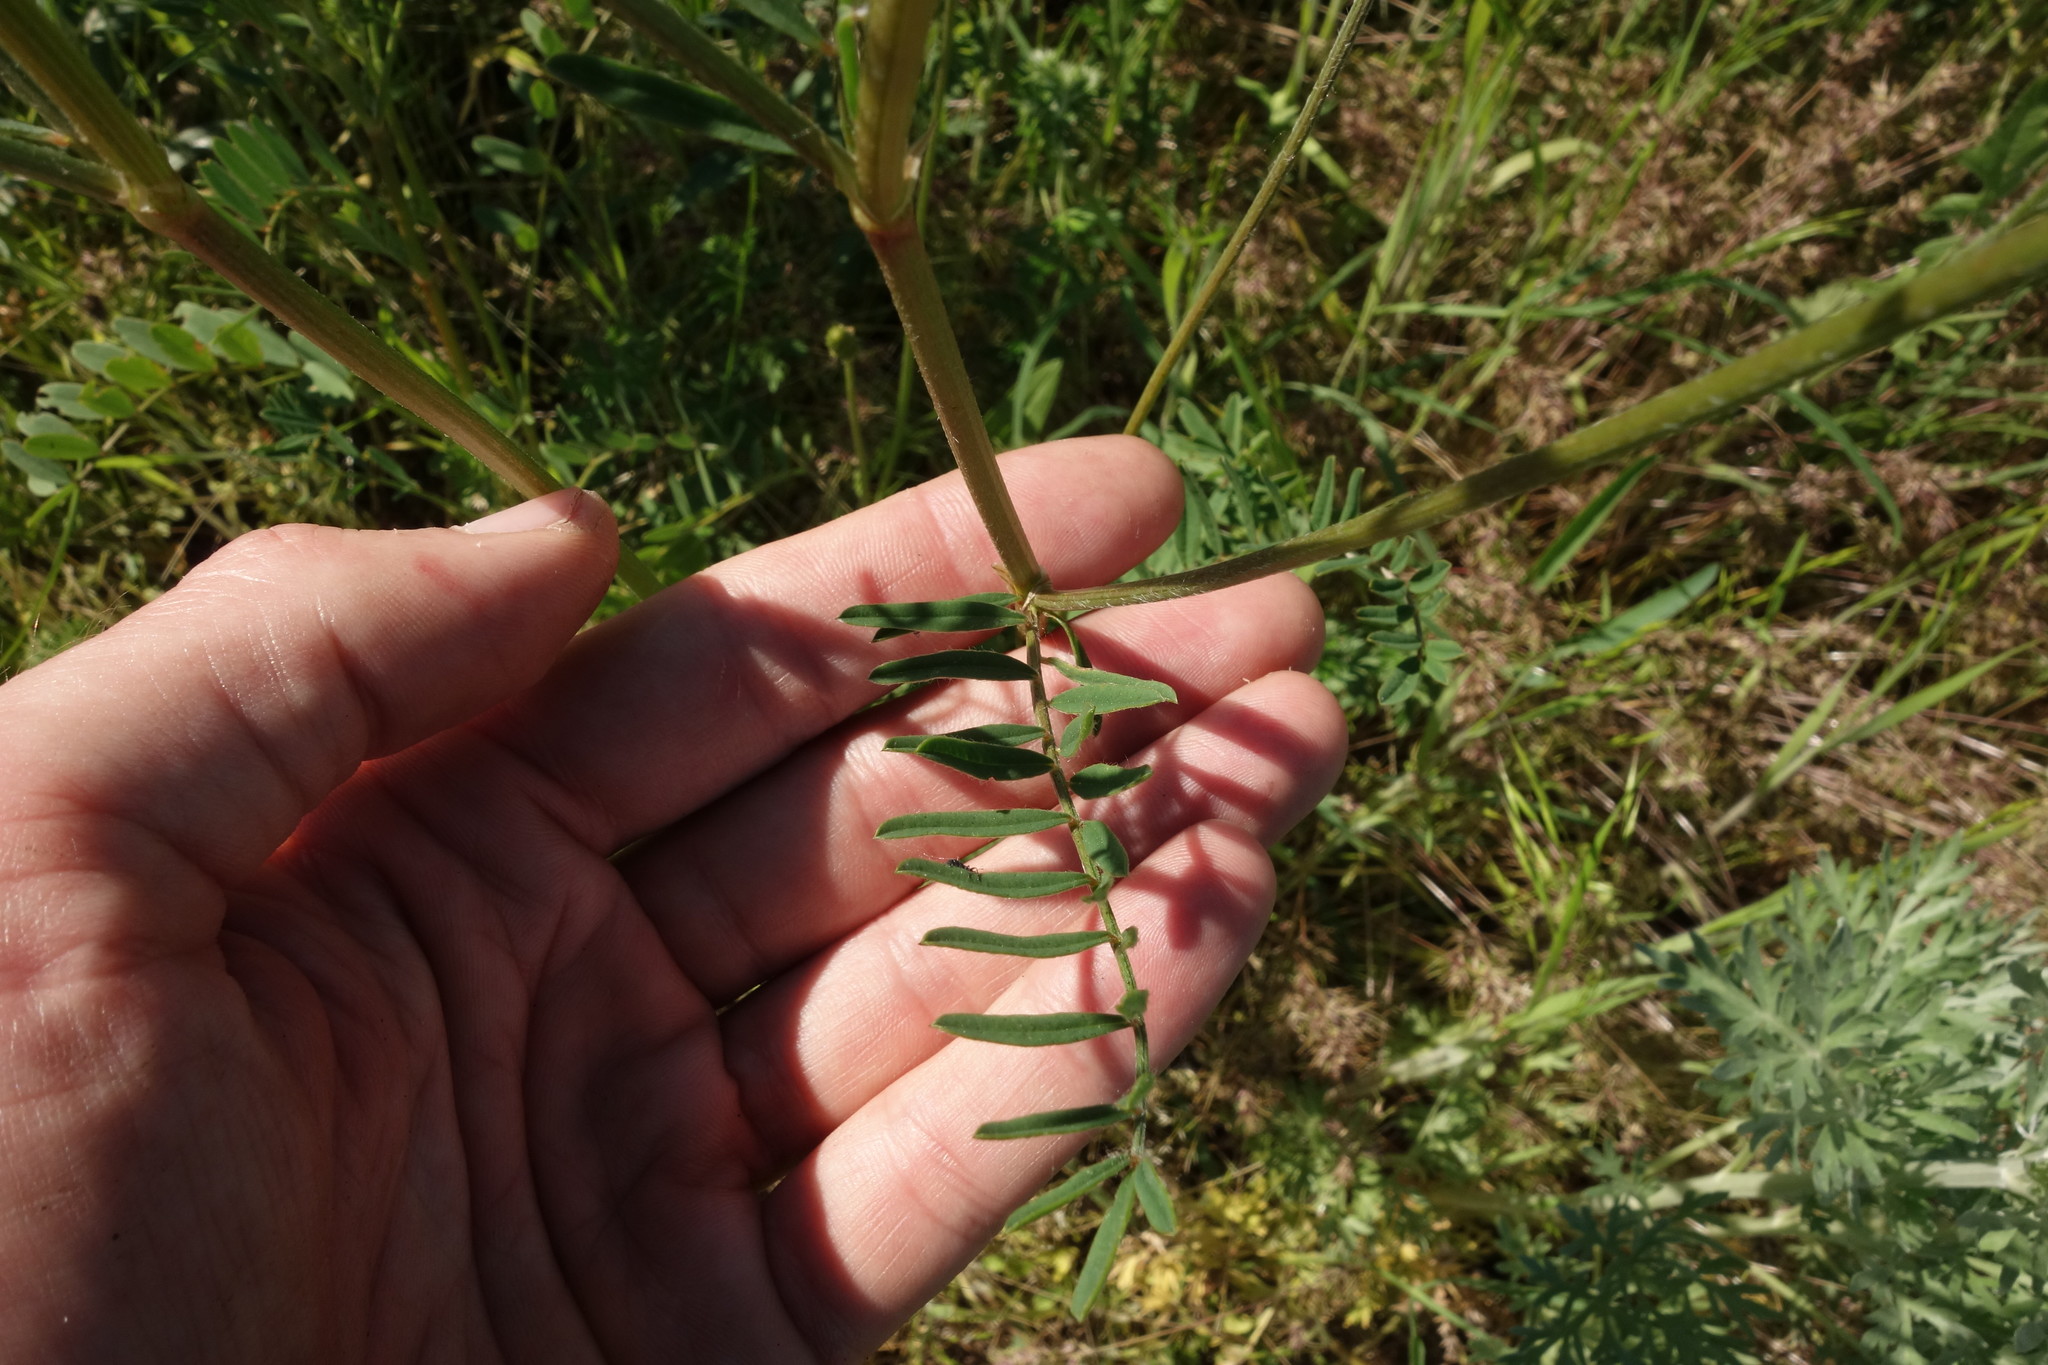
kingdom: Plantae
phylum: Tracheophyta
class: Magnoliopsida
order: Fabales
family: Fabaceae
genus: Onobrychis
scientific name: Onobrychis viciifolia
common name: Sainfoin
